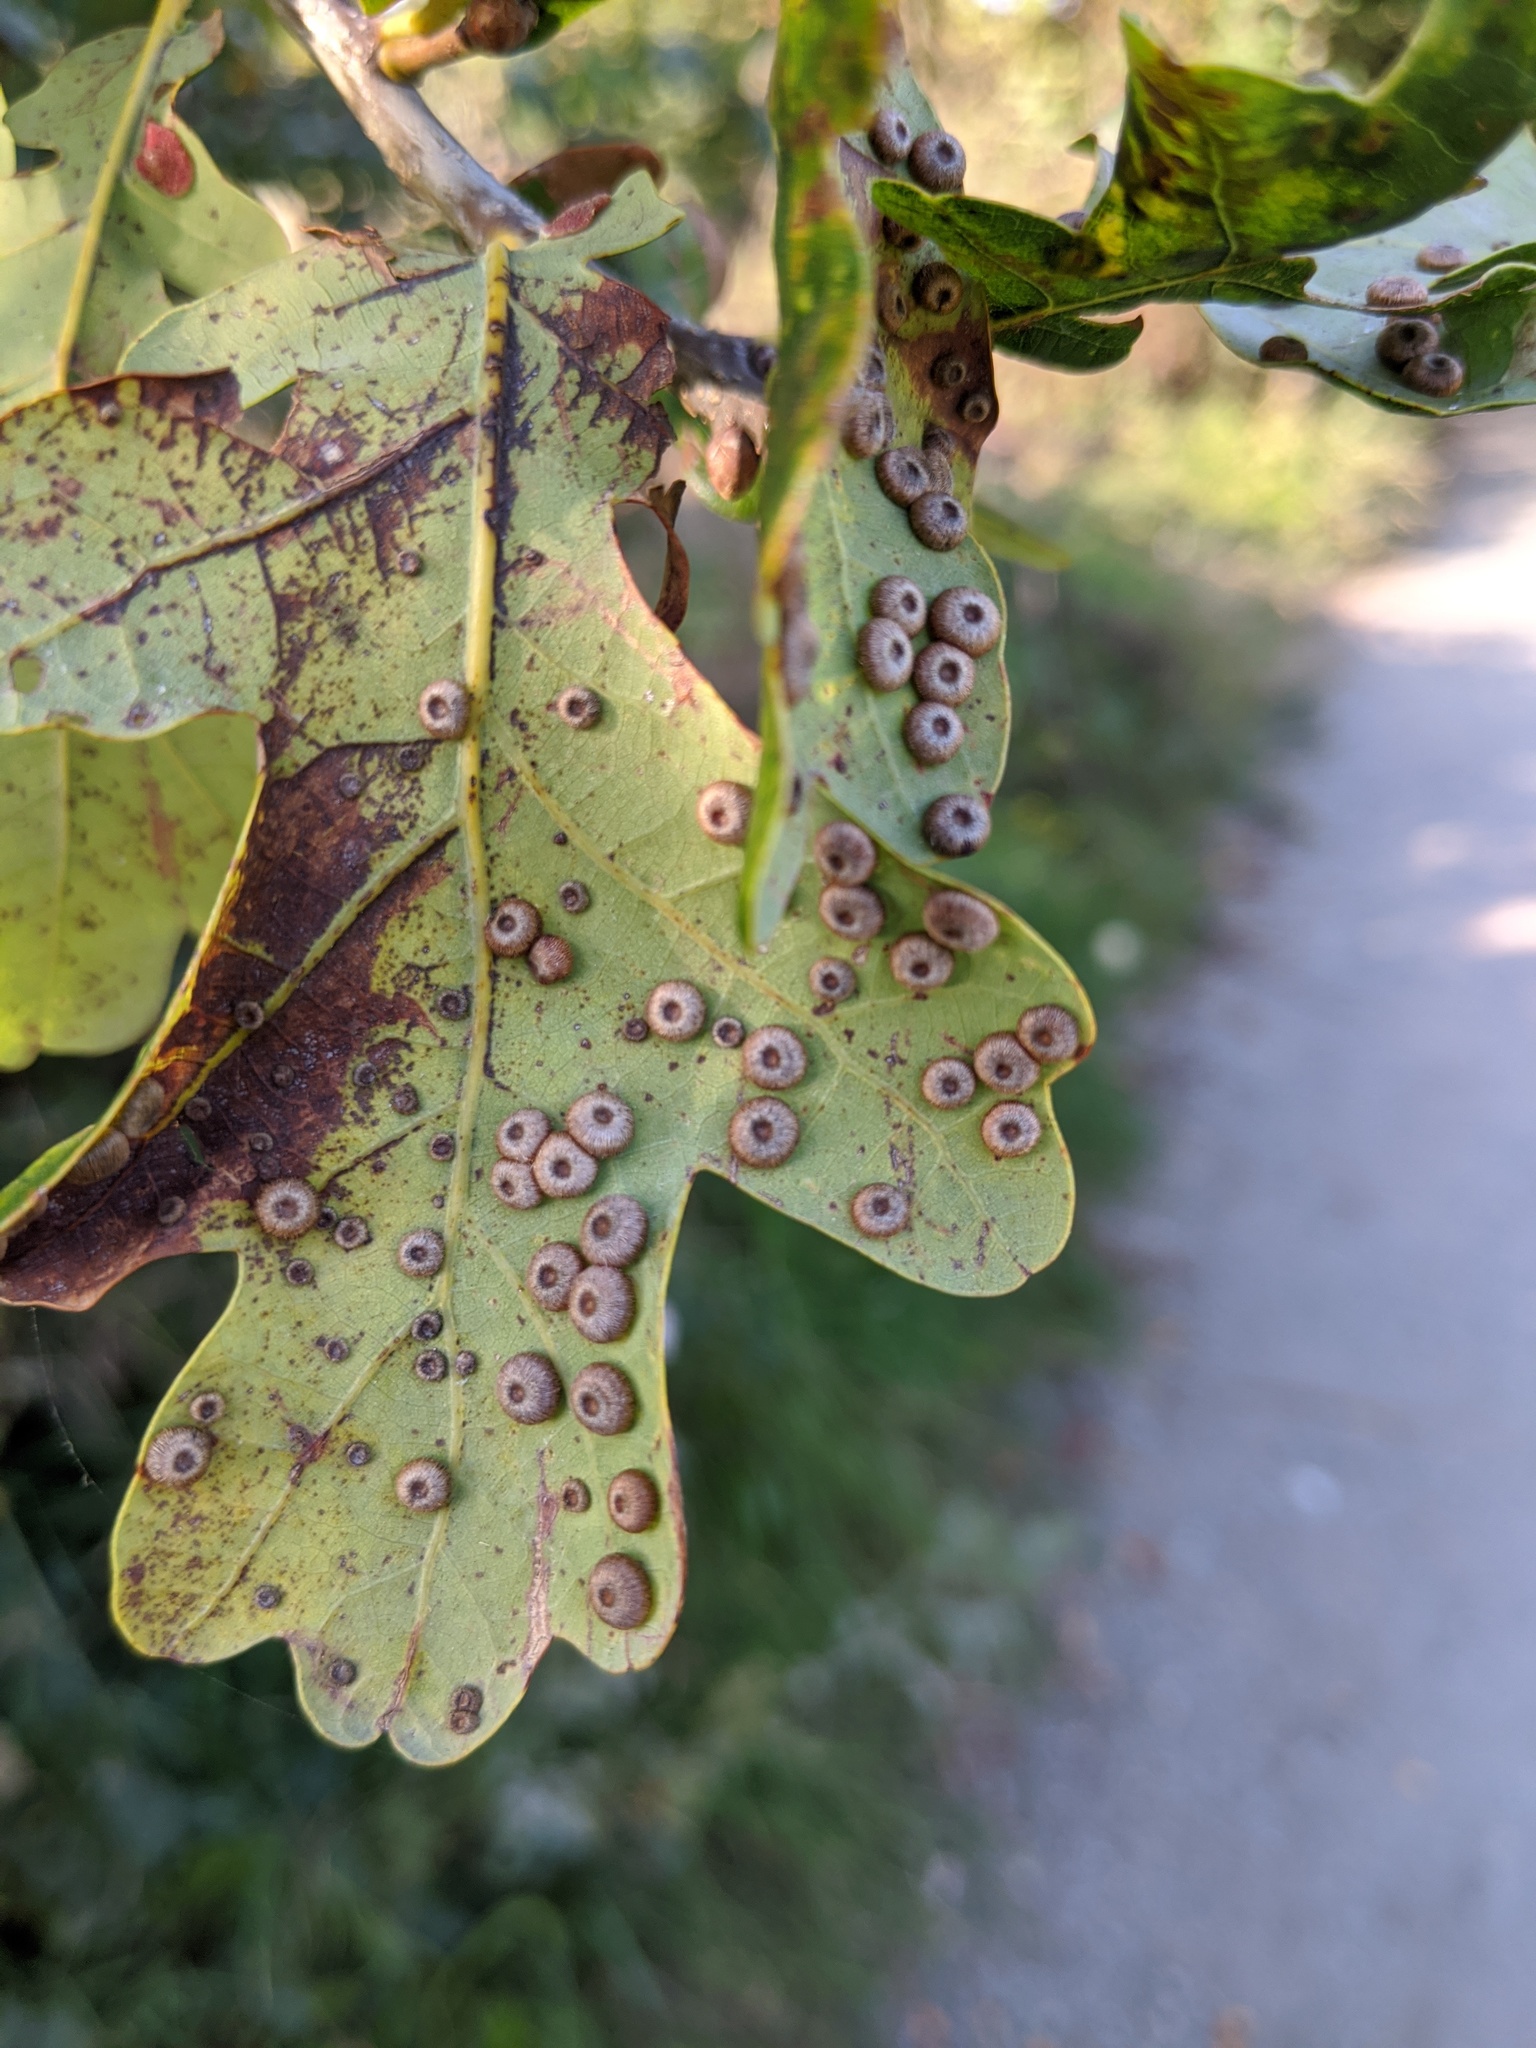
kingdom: Animalia
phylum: Arthropoda
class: Insecta
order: Hymenoptera
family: Cynipidae
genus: Neuroterus
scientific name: Neuroterus numismalis
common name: Silk-button spangle gall
